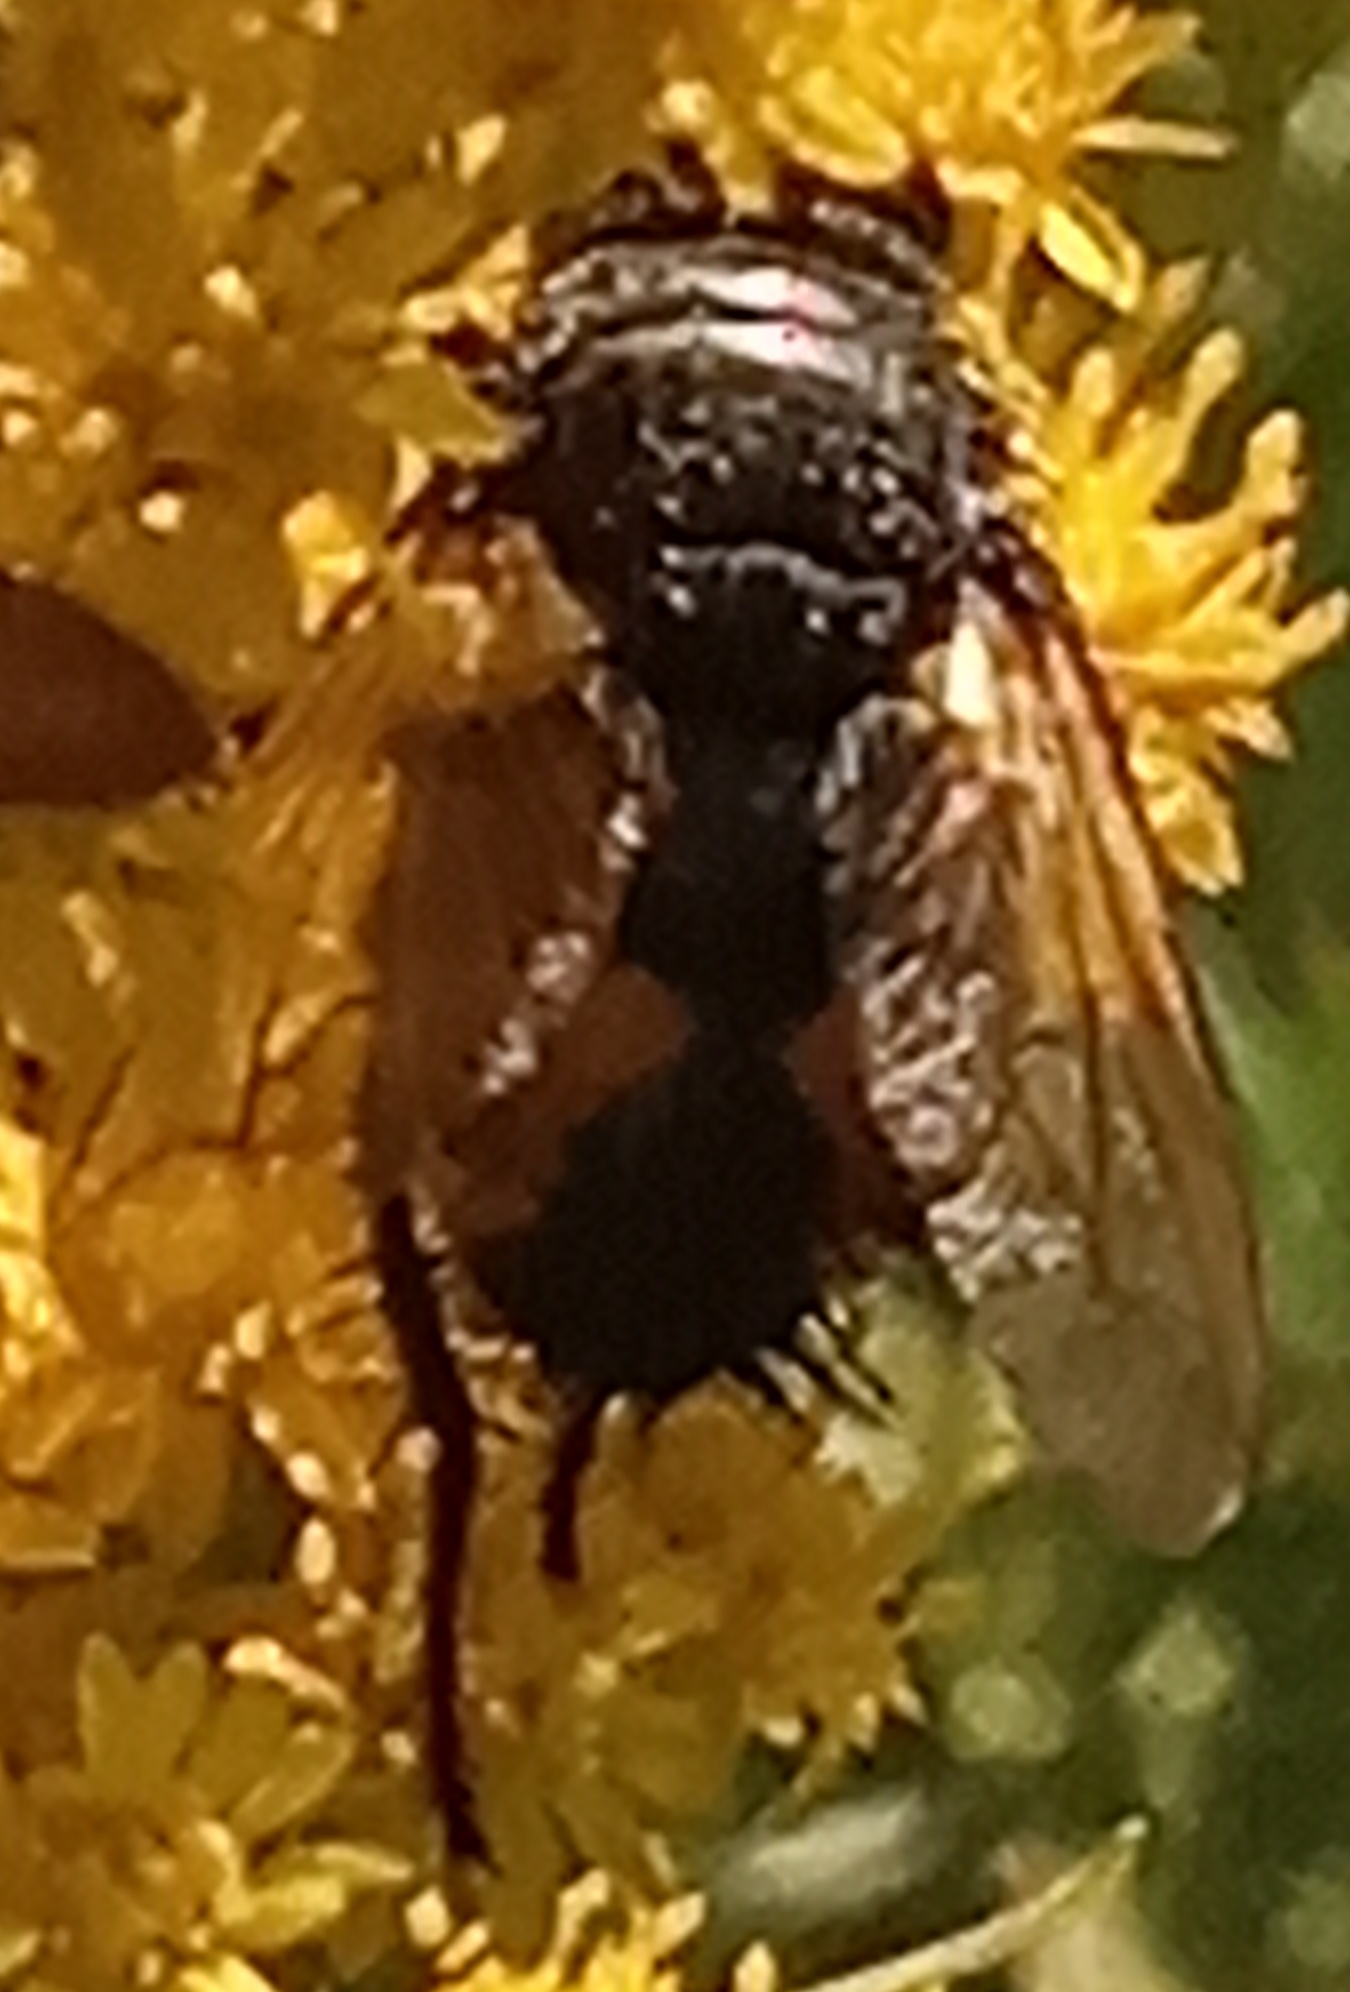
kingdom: Animalia
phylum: Arthropoda
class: Insecta
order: Diptera
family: Tachinidae
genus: Nowickia
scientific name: Nowickia ferox
